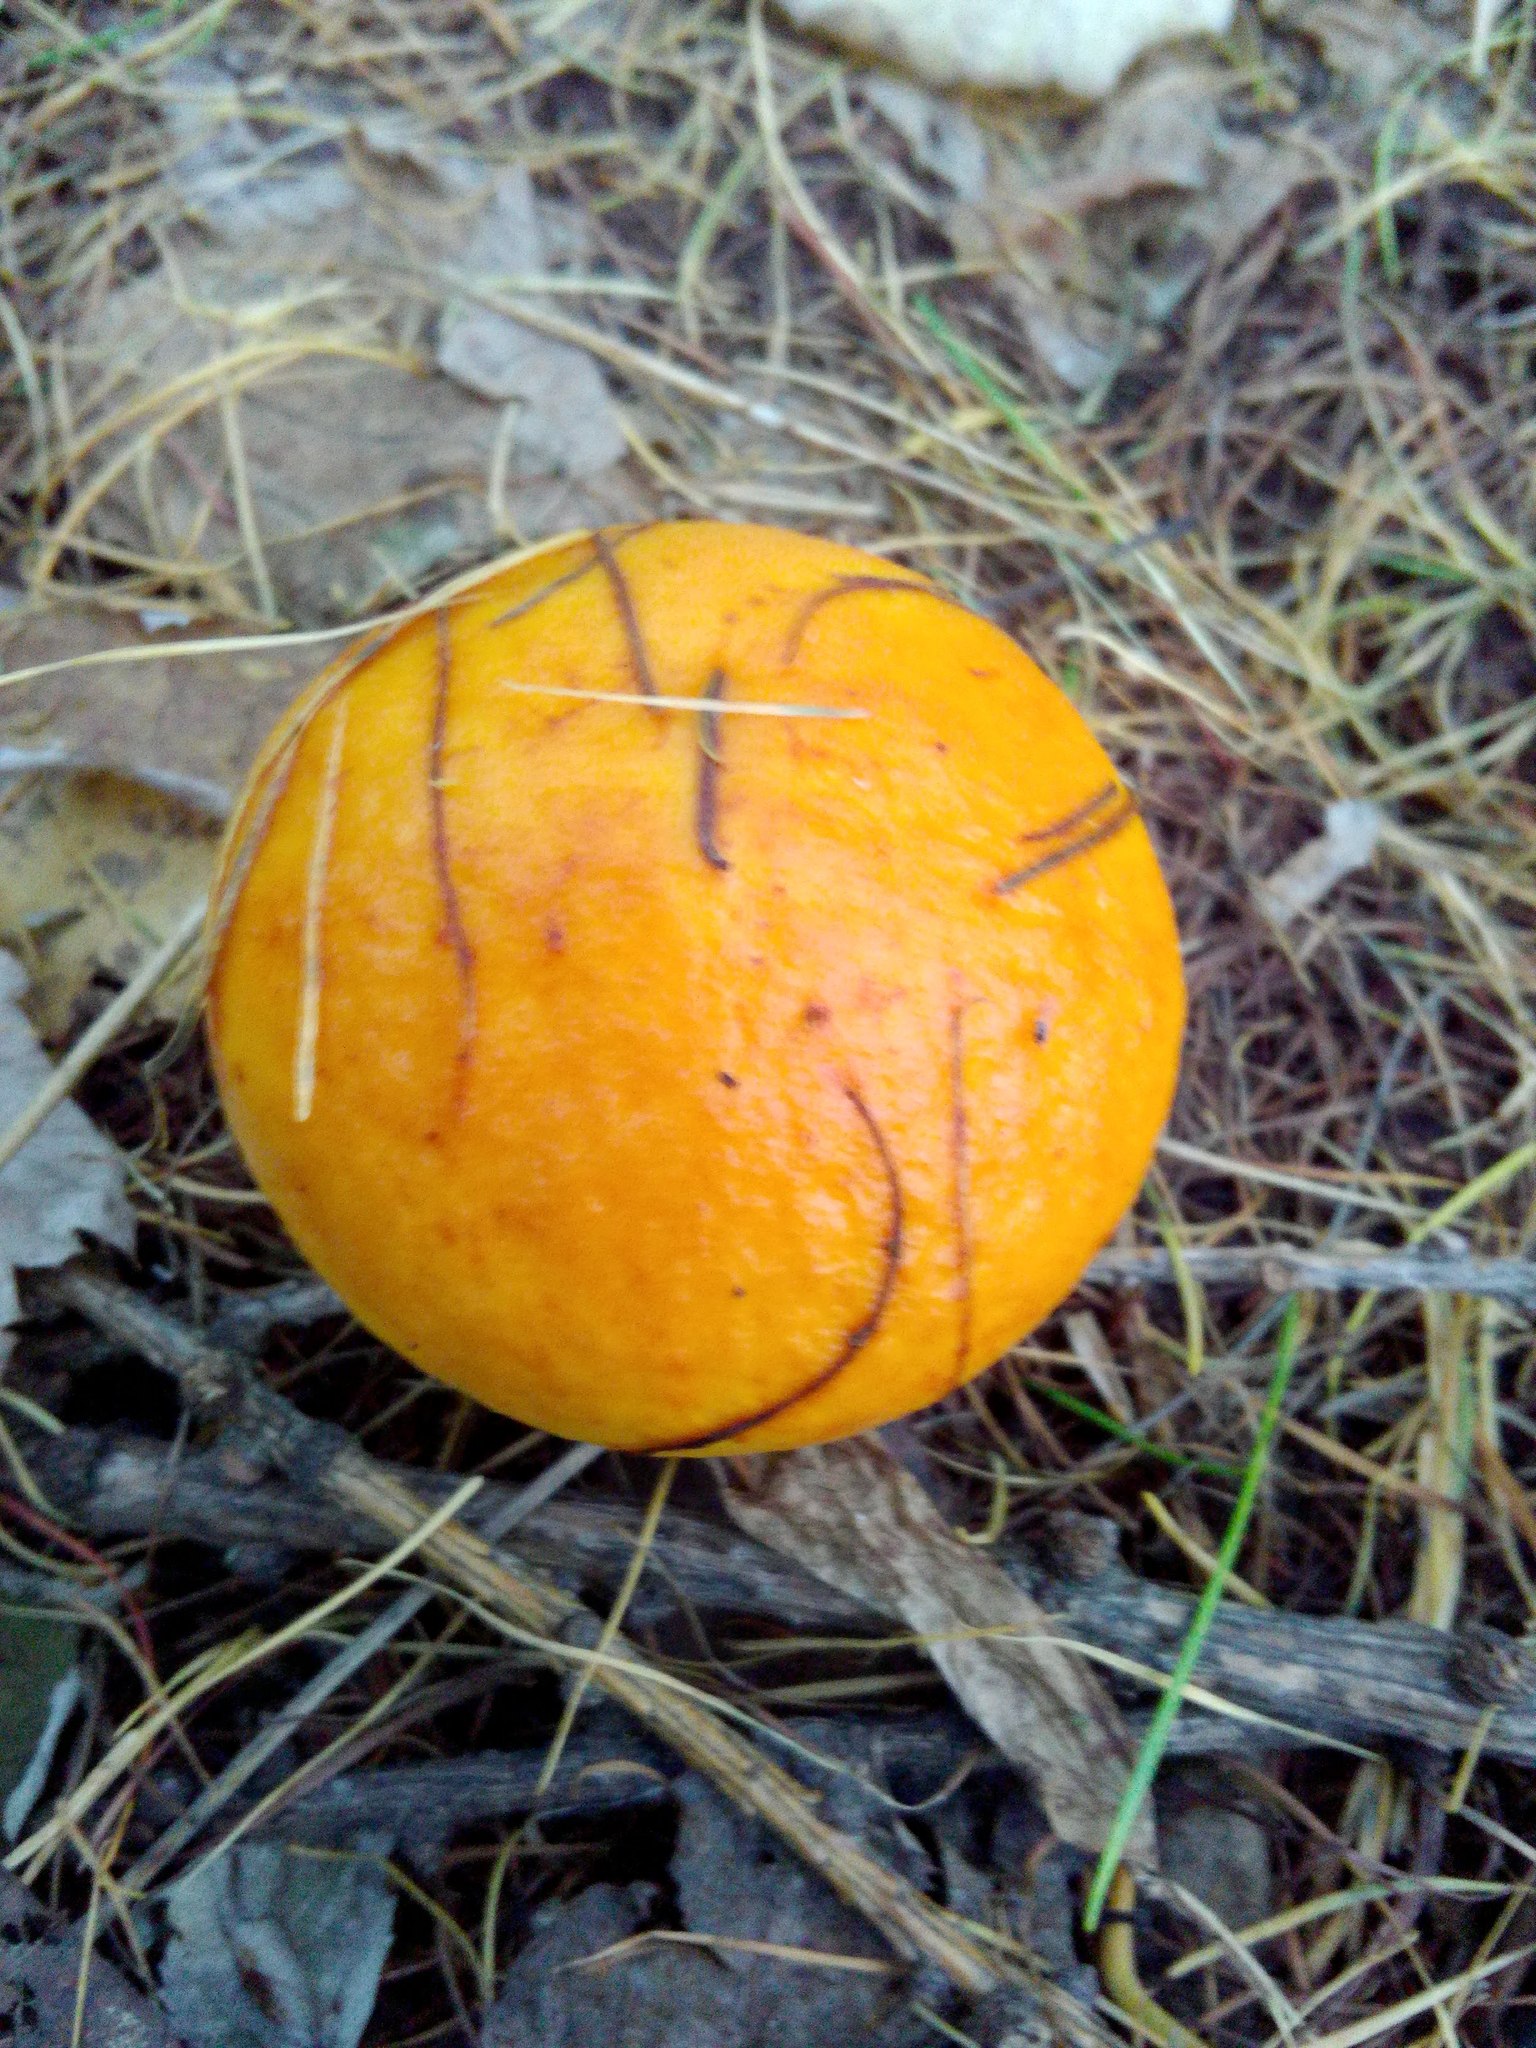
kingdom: Fungi
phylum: Basidiomycota
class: Agaricomycetes
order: Boletales
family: Suillaceae
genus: Suillus
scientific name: Suillus grevillei
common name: Larch bolete
